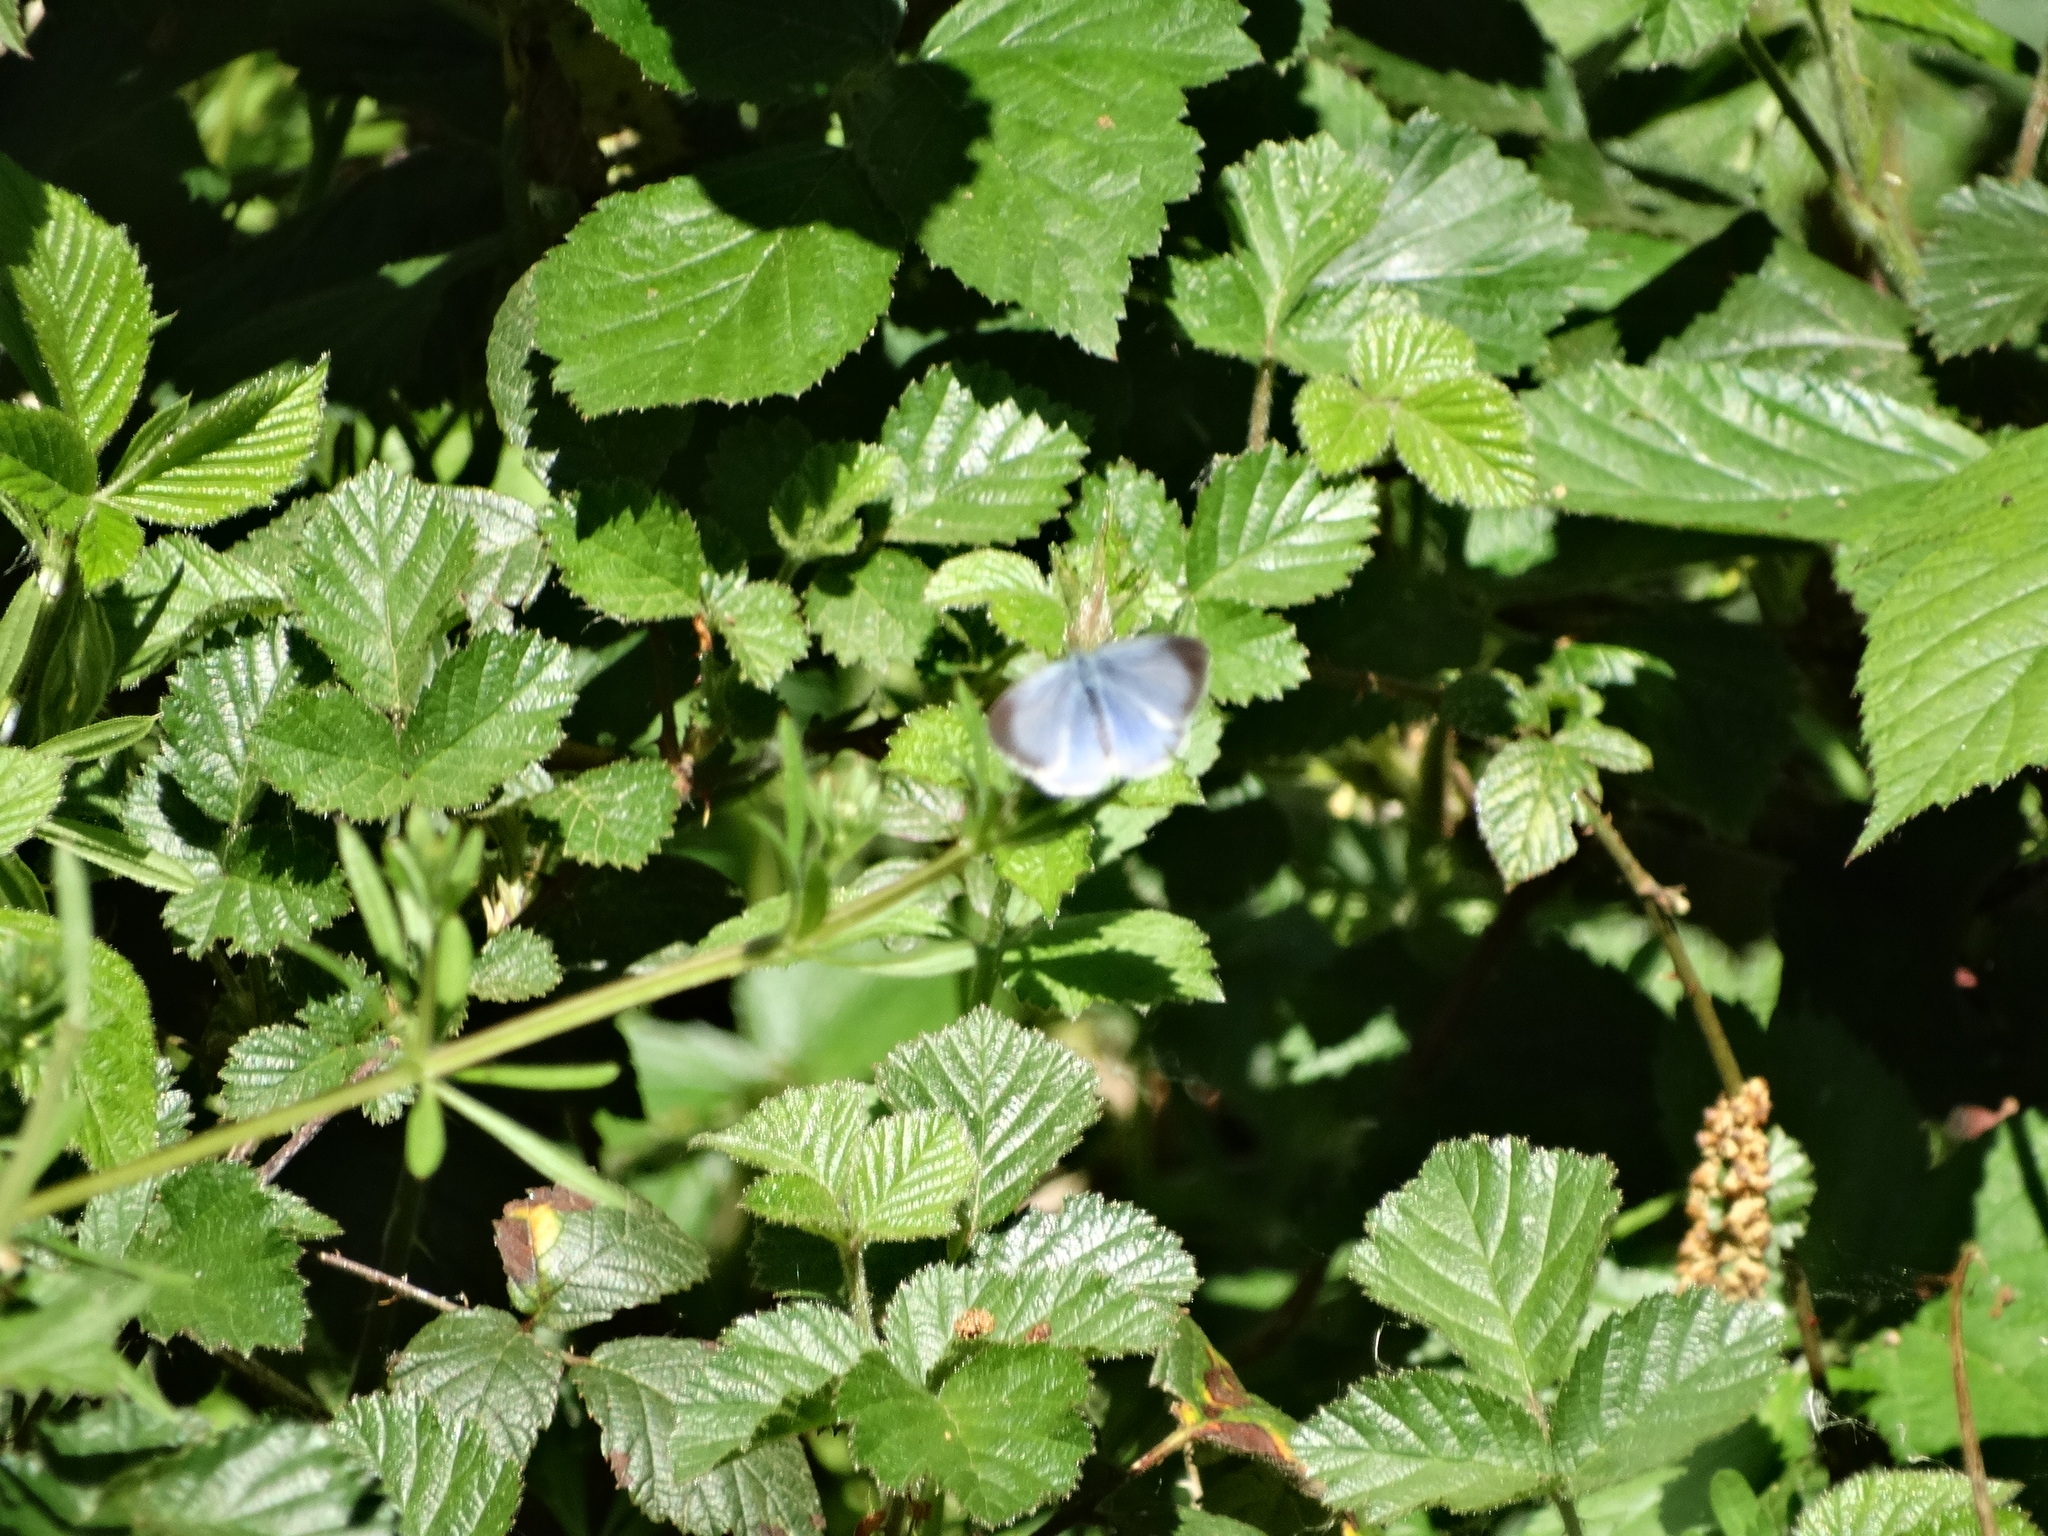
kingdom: Animalia
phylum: Arthropoda
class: Insecta
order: Lepidoptera
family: Lycaenidae
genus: Celastrina
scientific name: Celastrina argiolus
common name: Holly blue
